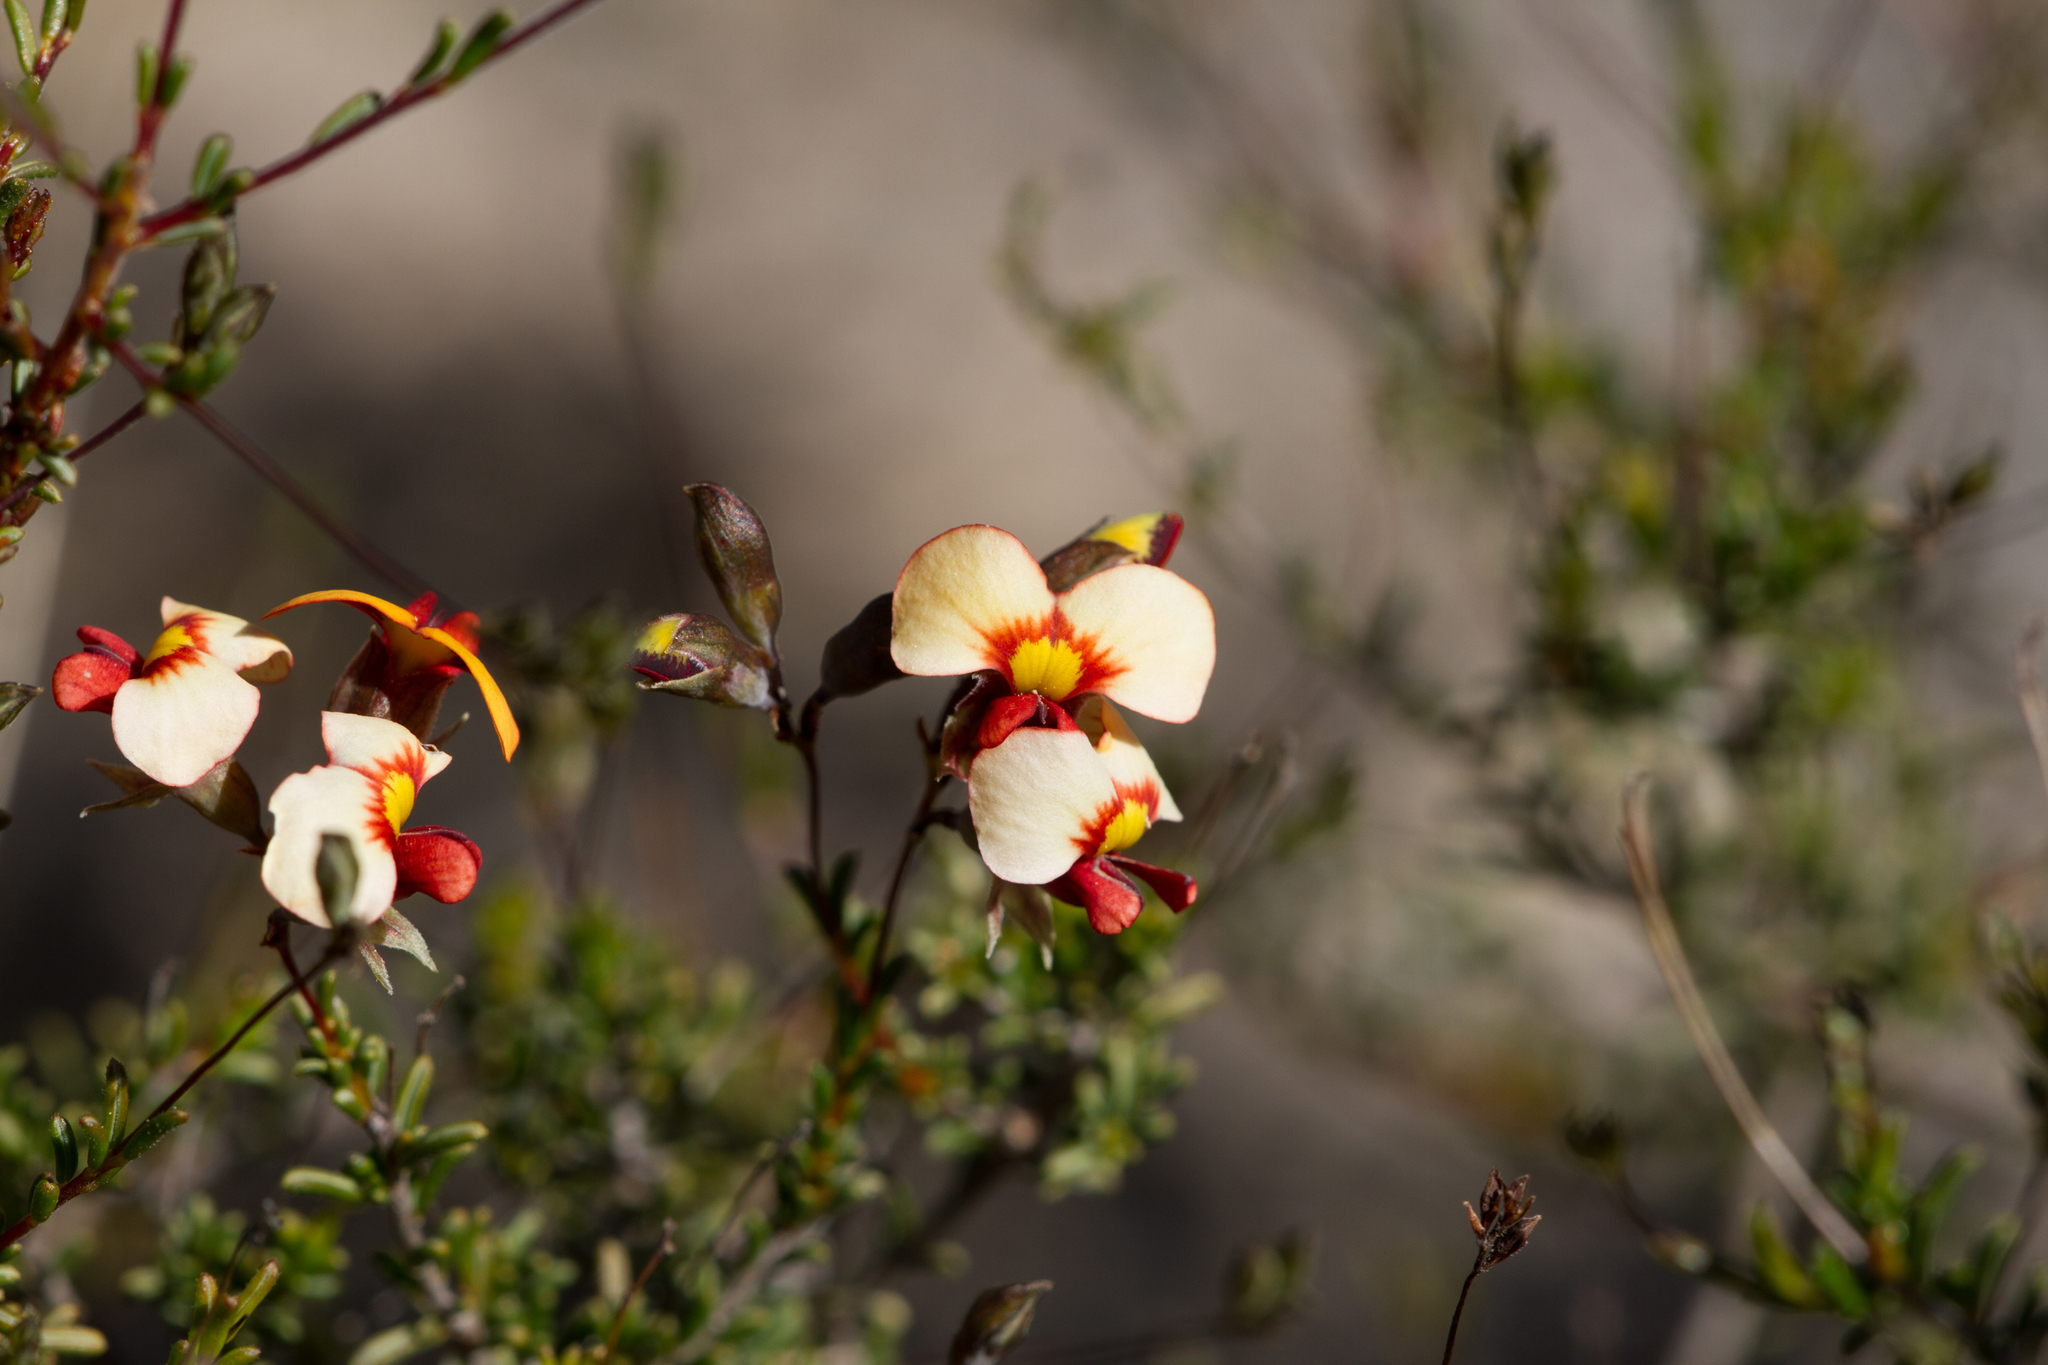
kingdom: Plantae
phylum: Tracheophyta
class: Magnoliopsida
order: Fabales
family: Fabaceae
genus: Dillwynia
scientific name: Dillwynia hispida
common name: Red parrot-pea
